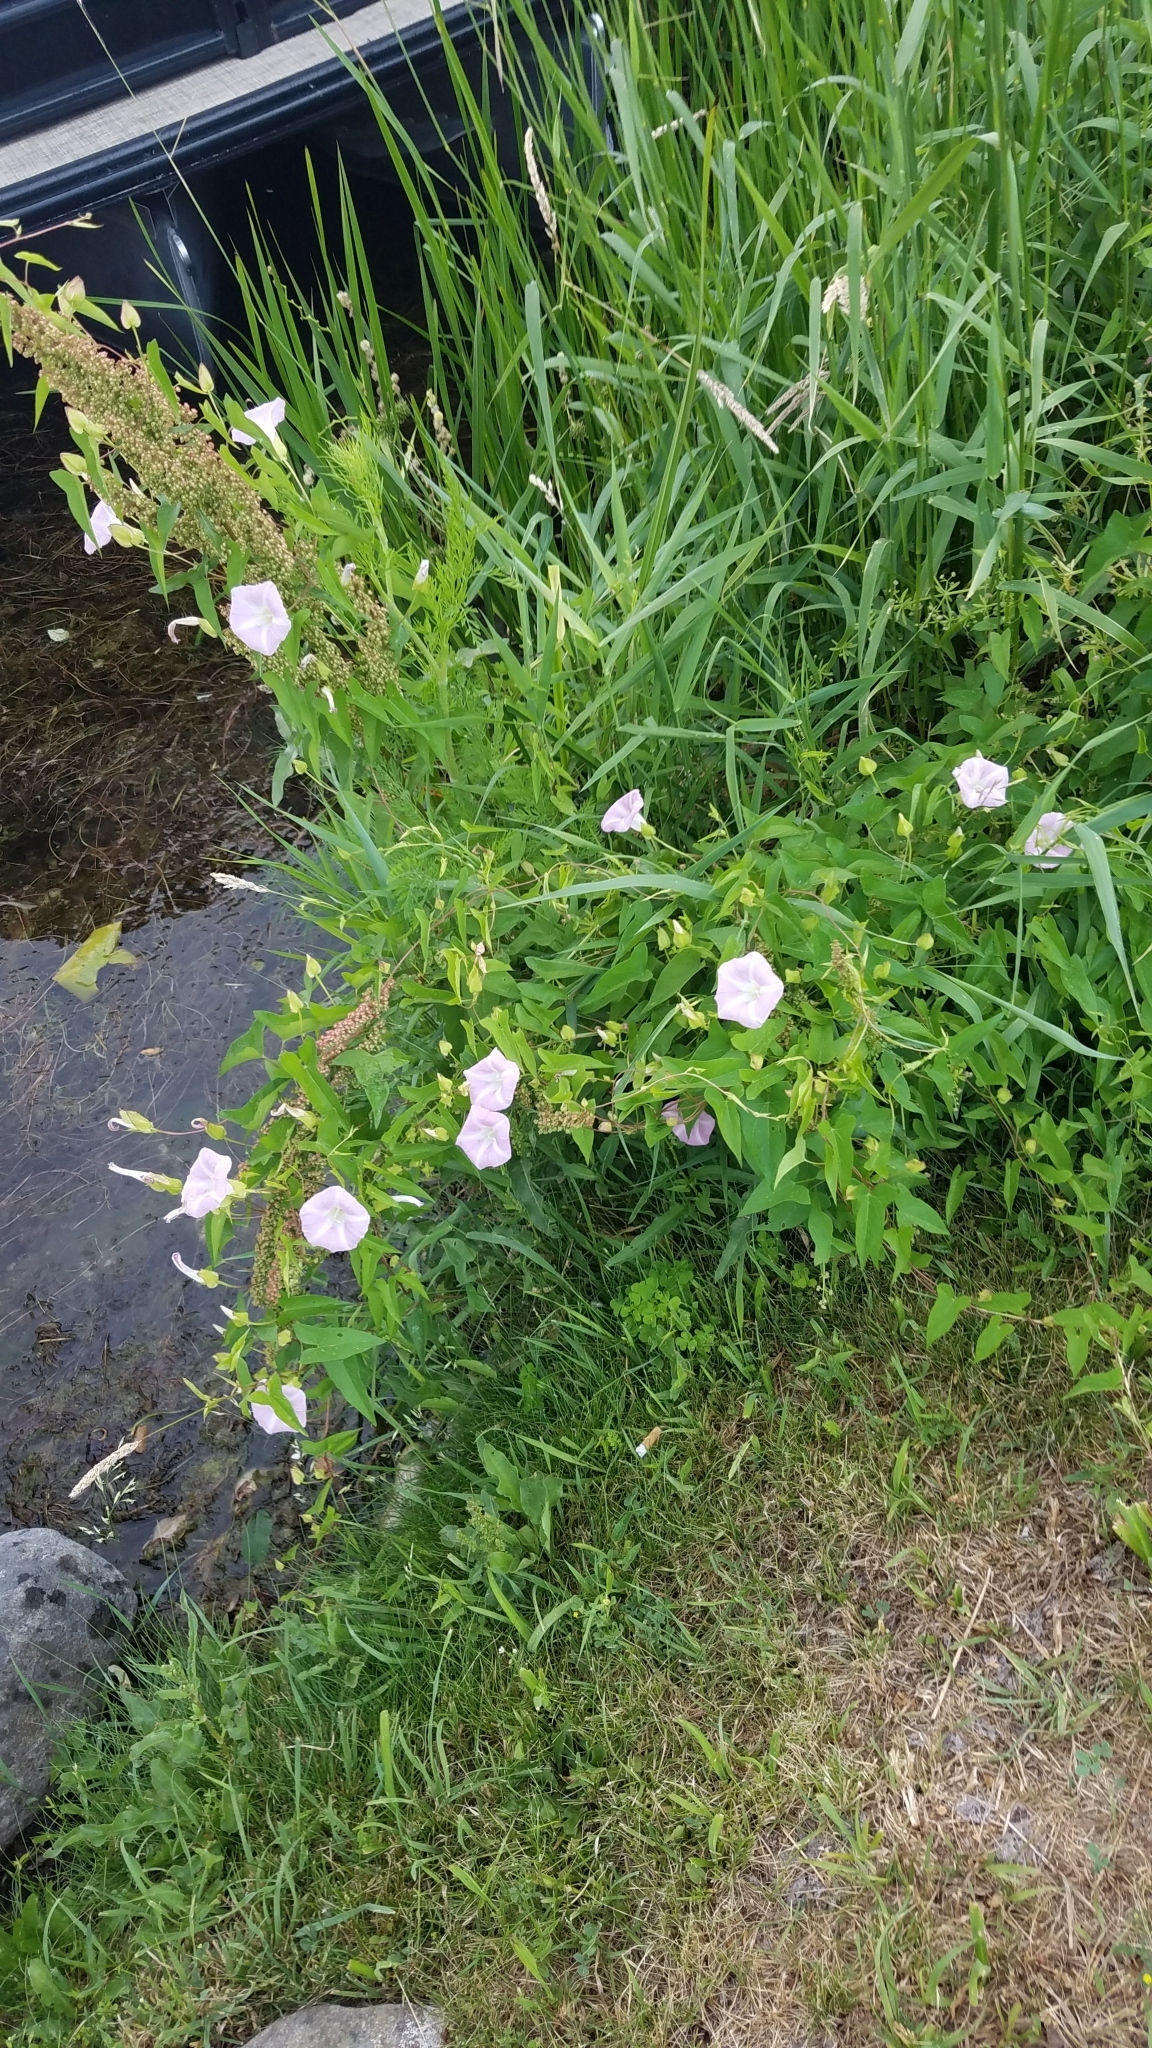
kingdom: Plantae
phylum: Tracheophyta
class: Magnoliopsida
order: Solanales
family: Convolvulaceae
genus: Calystegia
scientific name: Calystegia sepium
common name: Hedge bindweed
